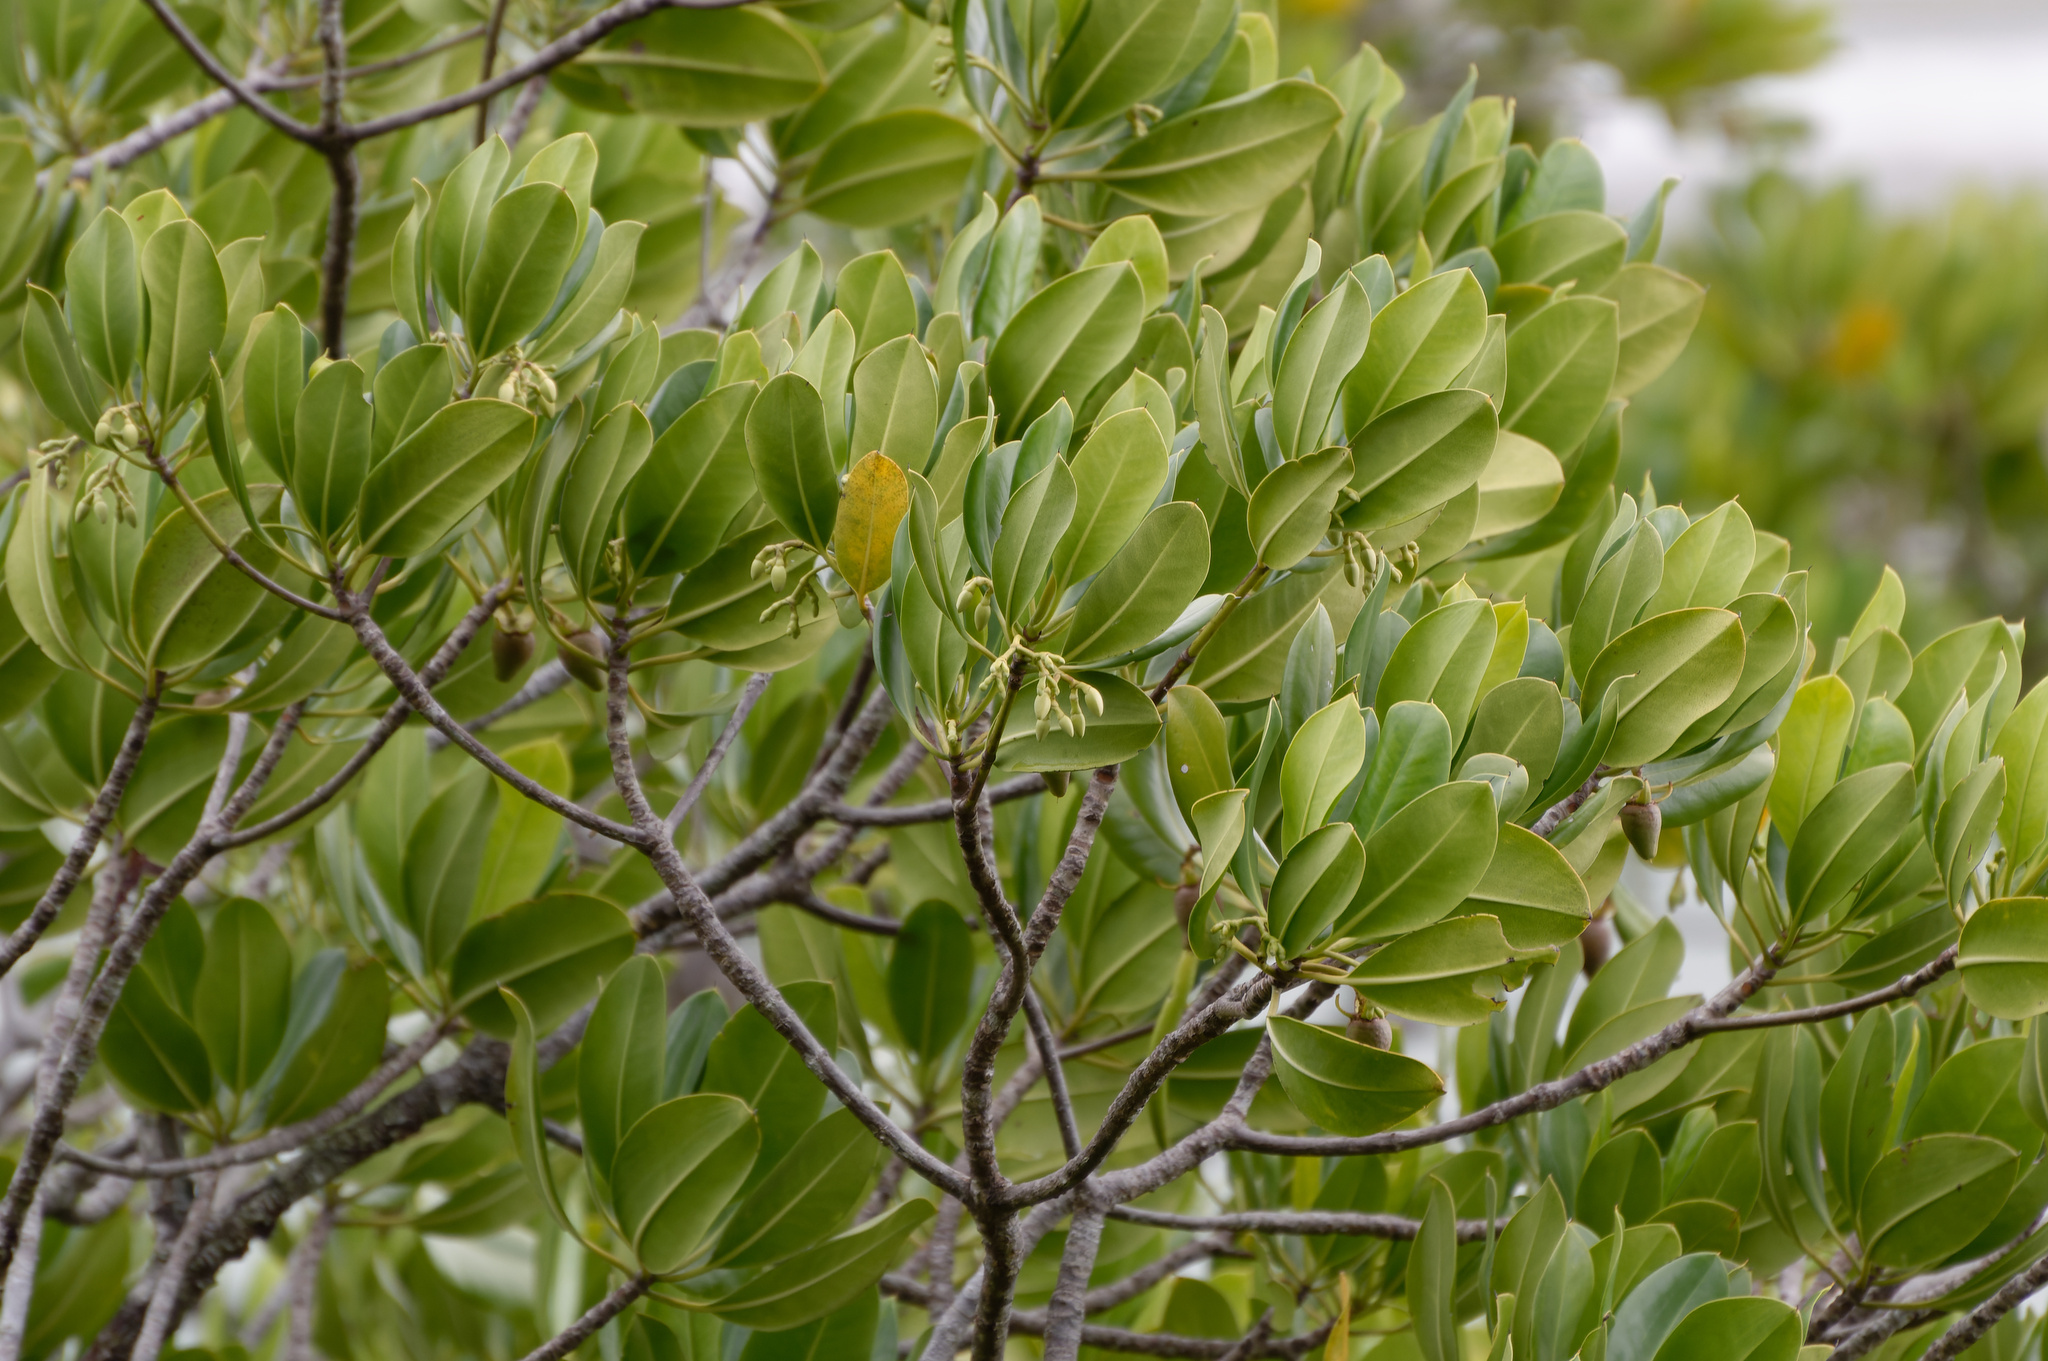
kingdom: Plantae
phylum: Tracheophyta
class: Magnoliopsida
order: Malpighiales
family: Rhizophoraceae
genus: Rhizophora
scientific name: Rhizophora stylosa
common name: Red mangrove
